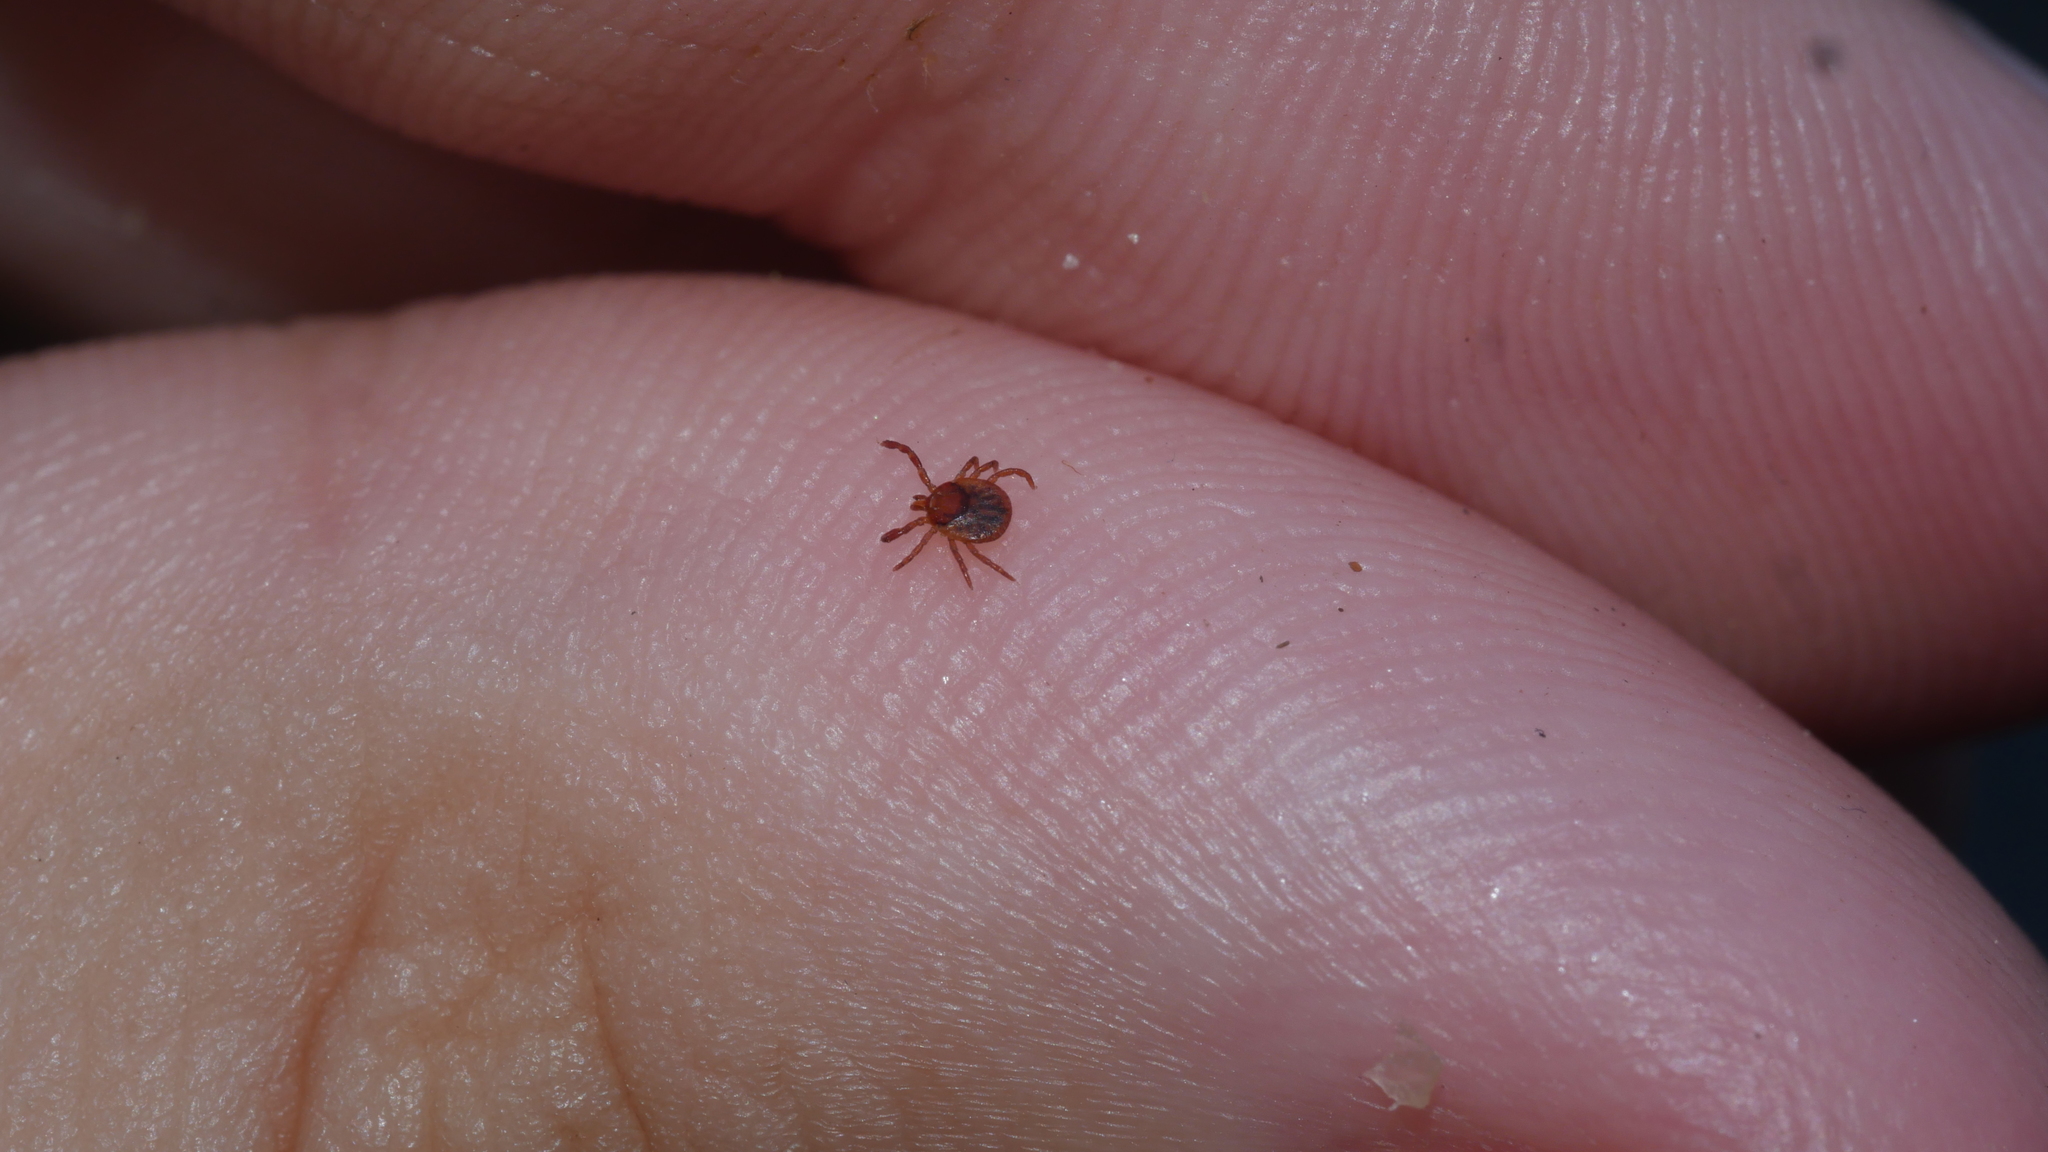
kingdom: Animalia
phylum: Arthropoda
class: Arachnida
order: Ixodida
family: Ixodidae
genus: Amblyomma
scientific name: Amblyomma americanum
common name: Lone star tick
